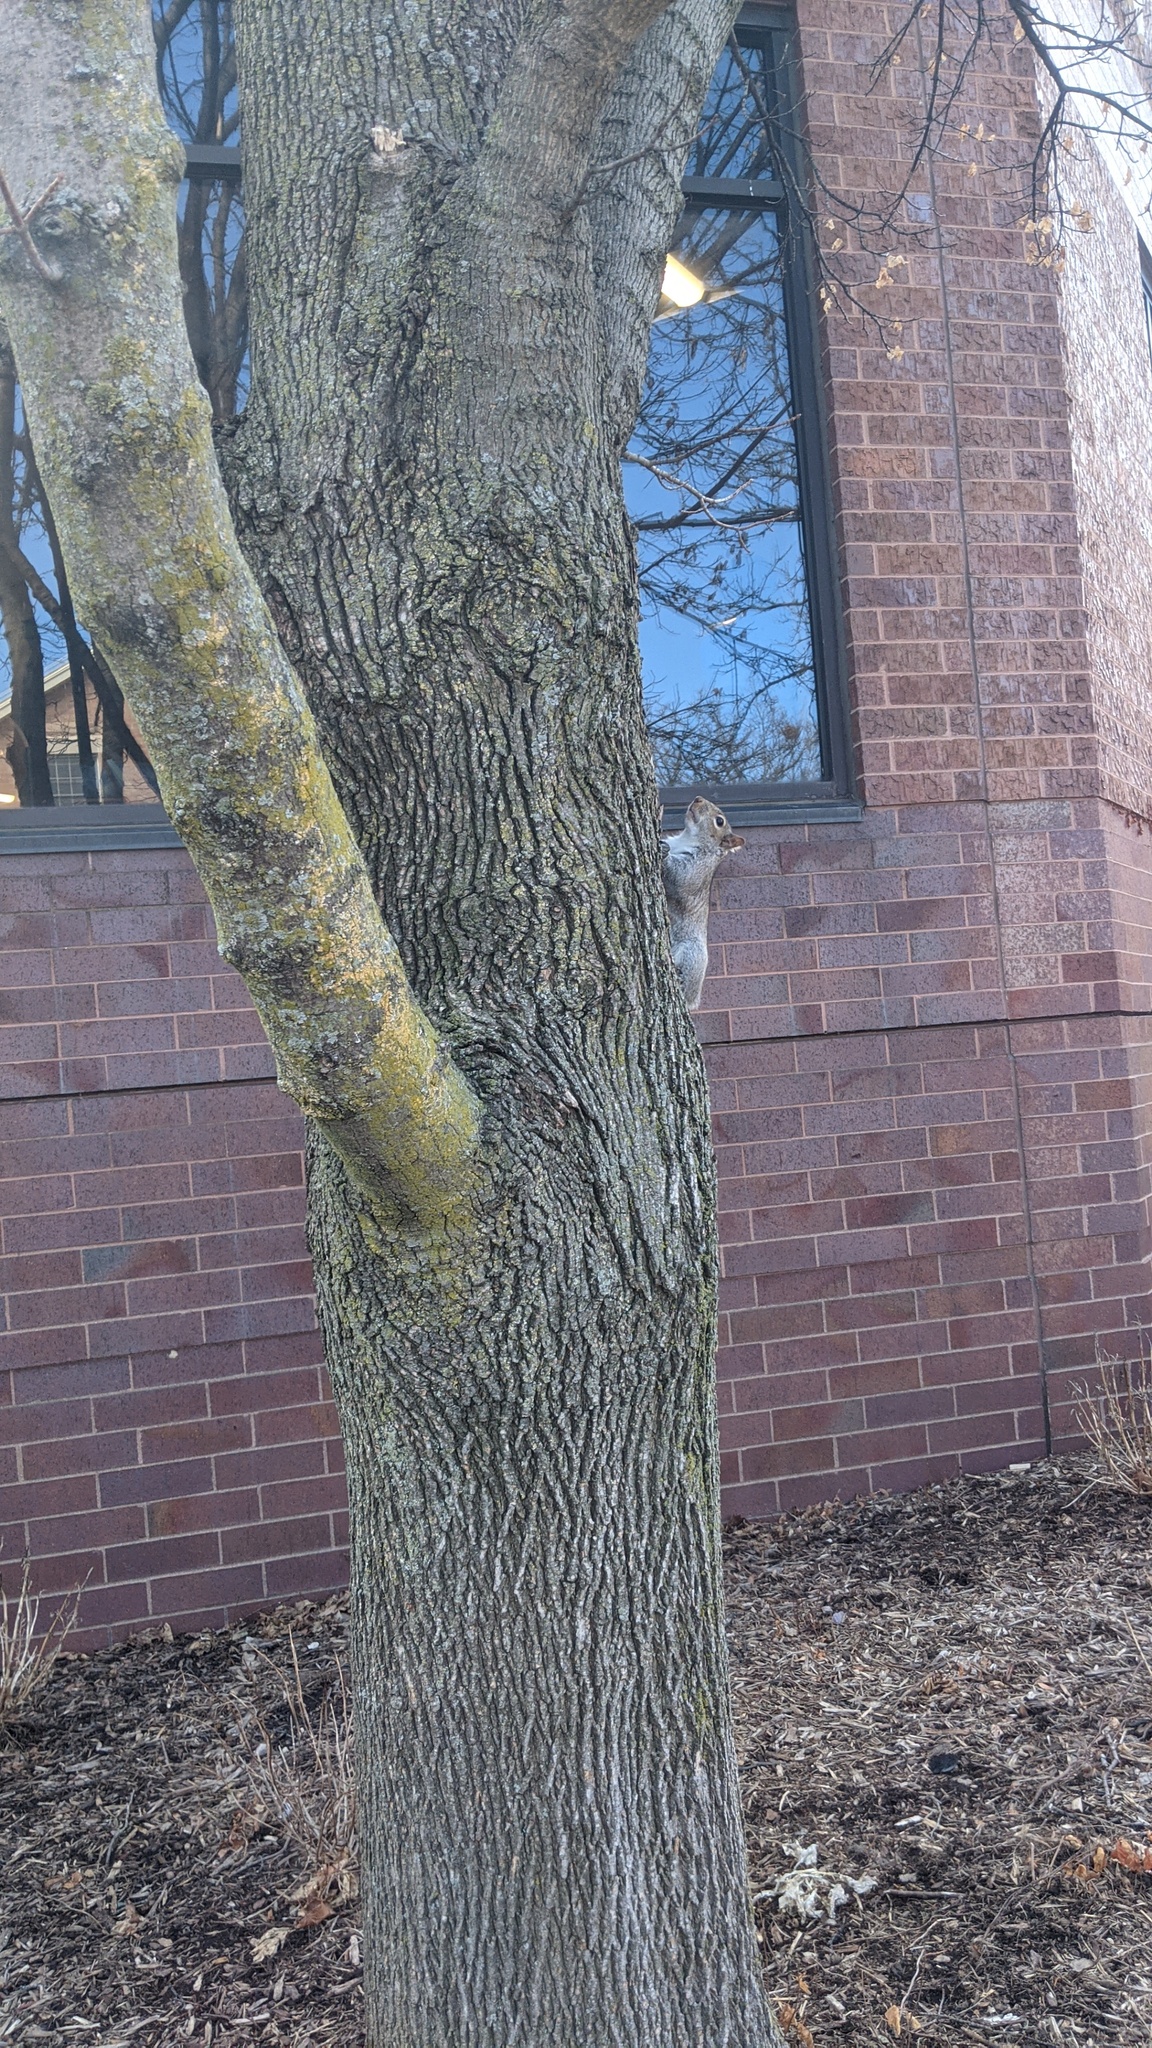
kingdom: Animalia
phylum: Chordata
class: Mammalia
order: Rodentia
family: Sciuridae
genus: Sciurus
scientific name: Sciurus carolinensis
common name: Eastern gray squirrel
